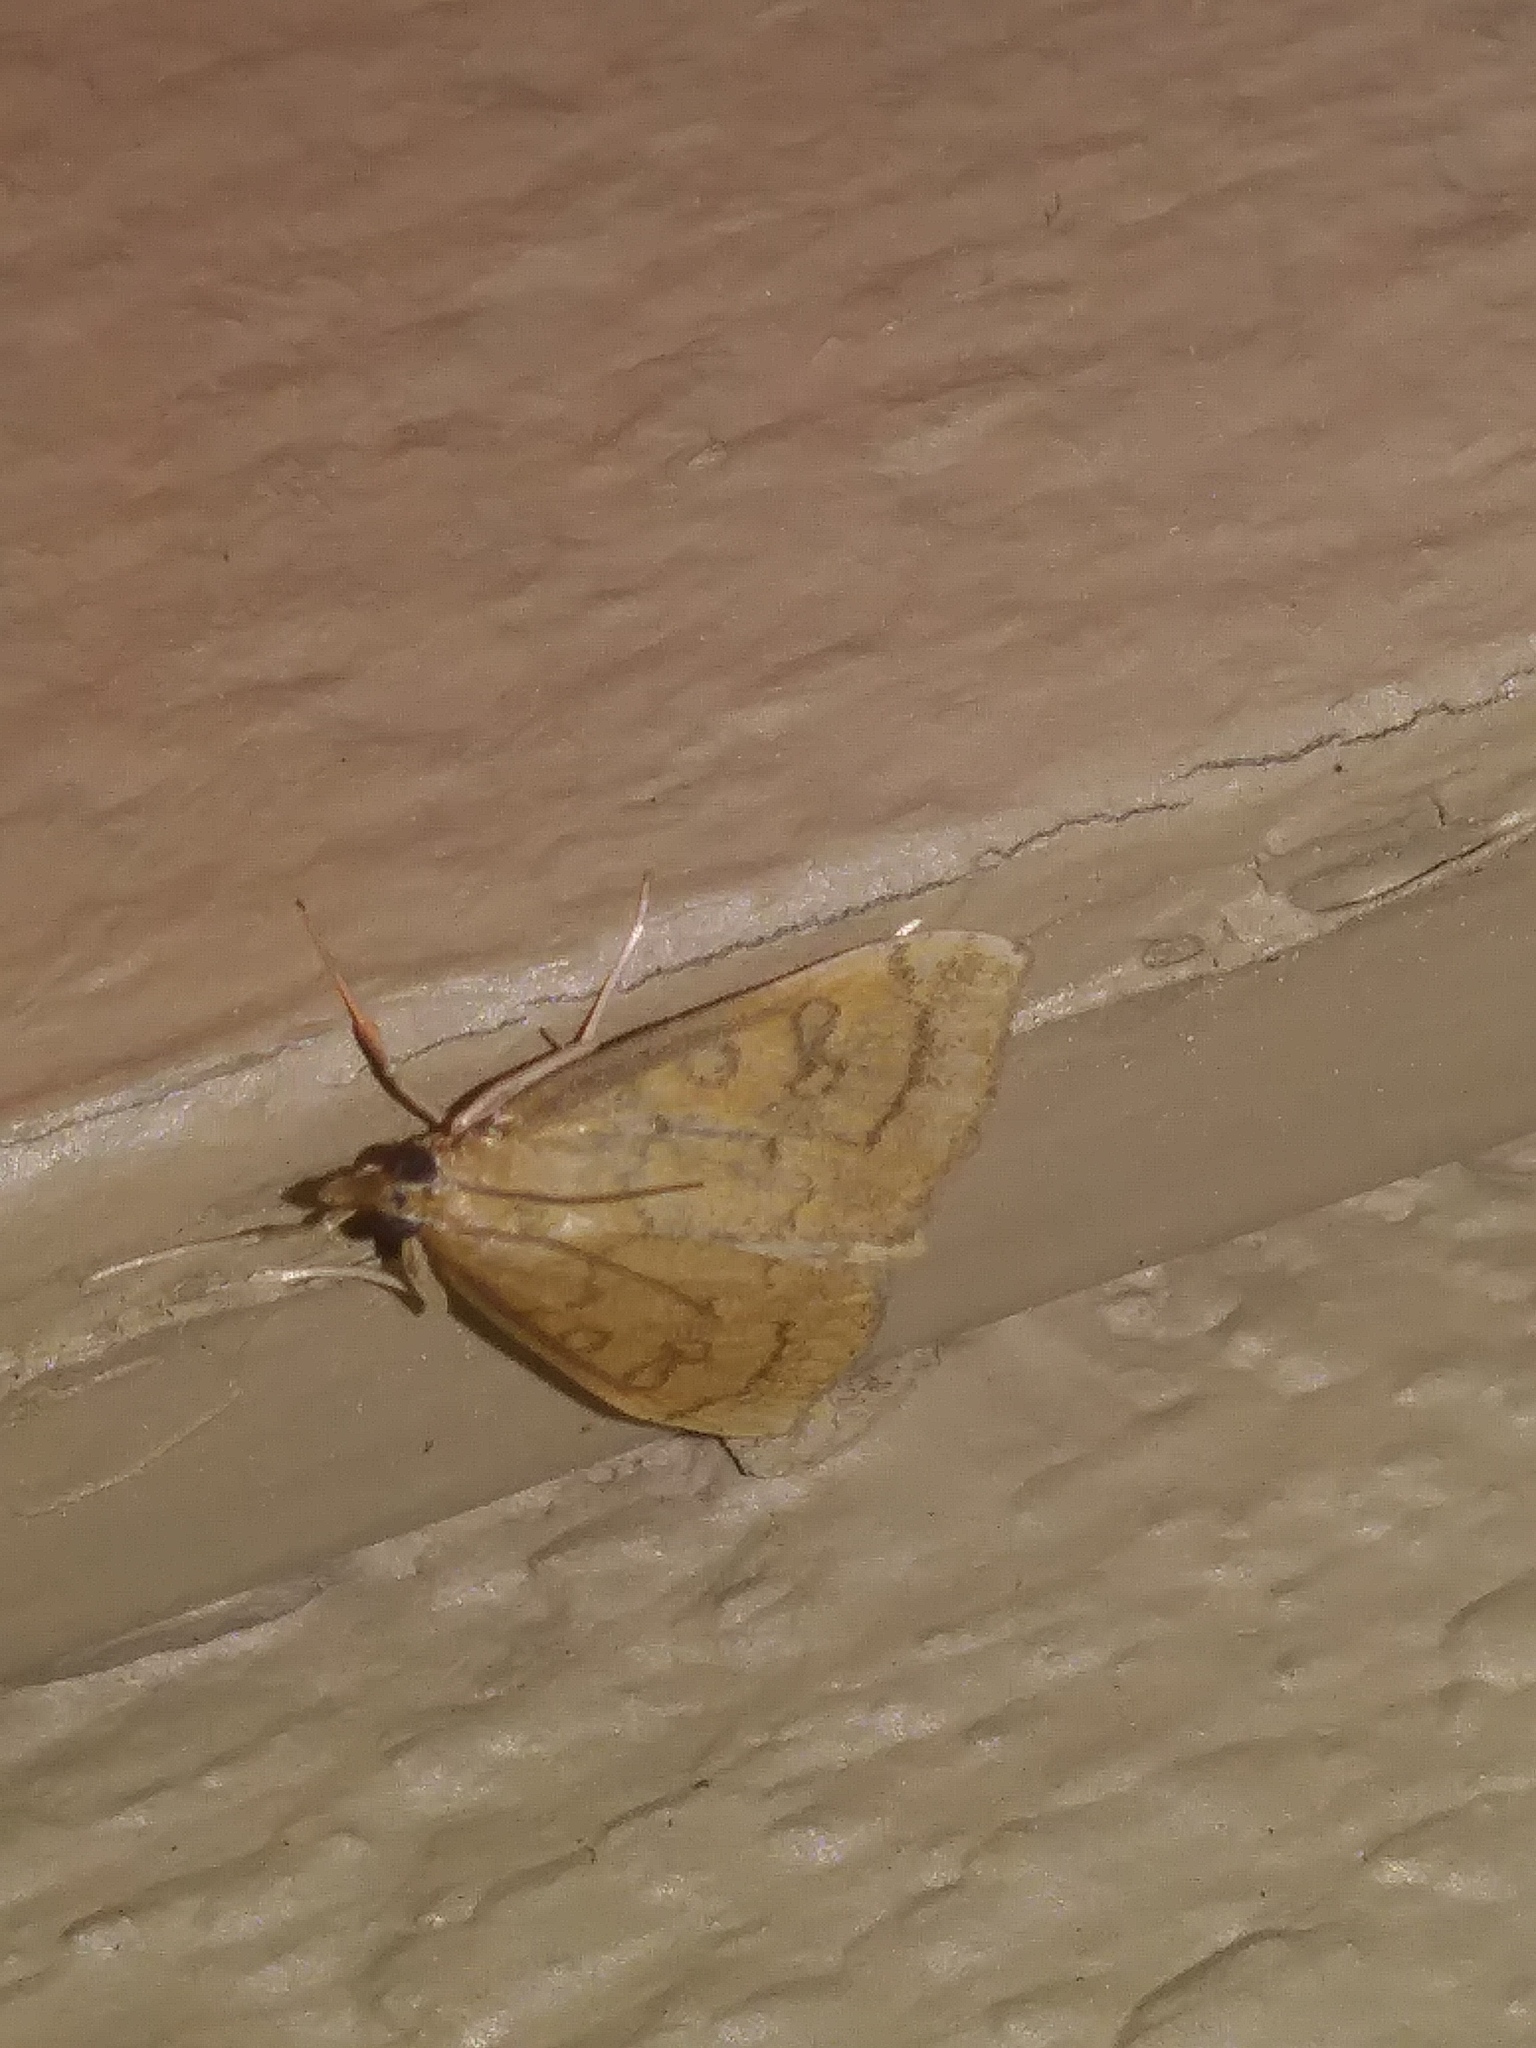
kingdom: Animalia
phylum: Arthropoda
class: Insecta
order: Lepidoptera
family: Crambidae
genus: Udea
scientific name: Udea rubigalis
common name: Celery leaftier moth
